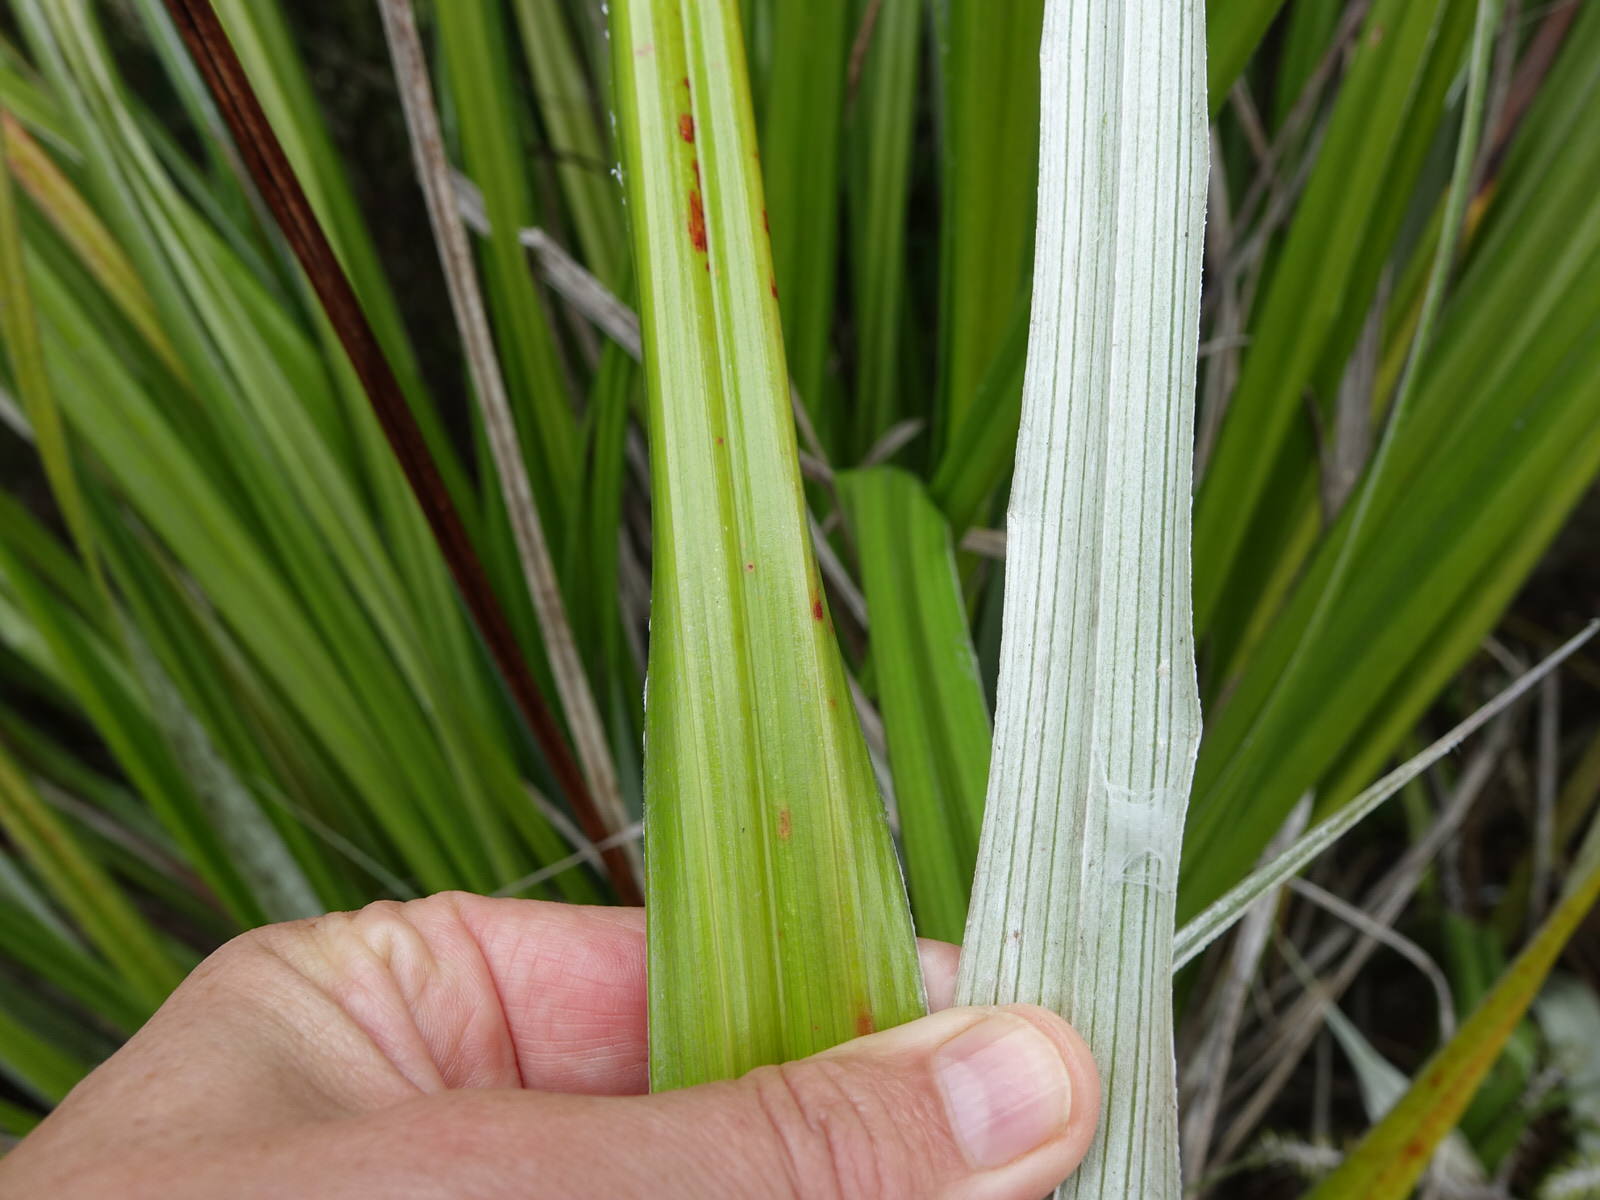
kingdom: Plantae
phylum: Tracheophyta
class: Liliopsida
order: Asparagales
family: Asteliaceae
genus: Astelia
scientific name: Astelia banksii
